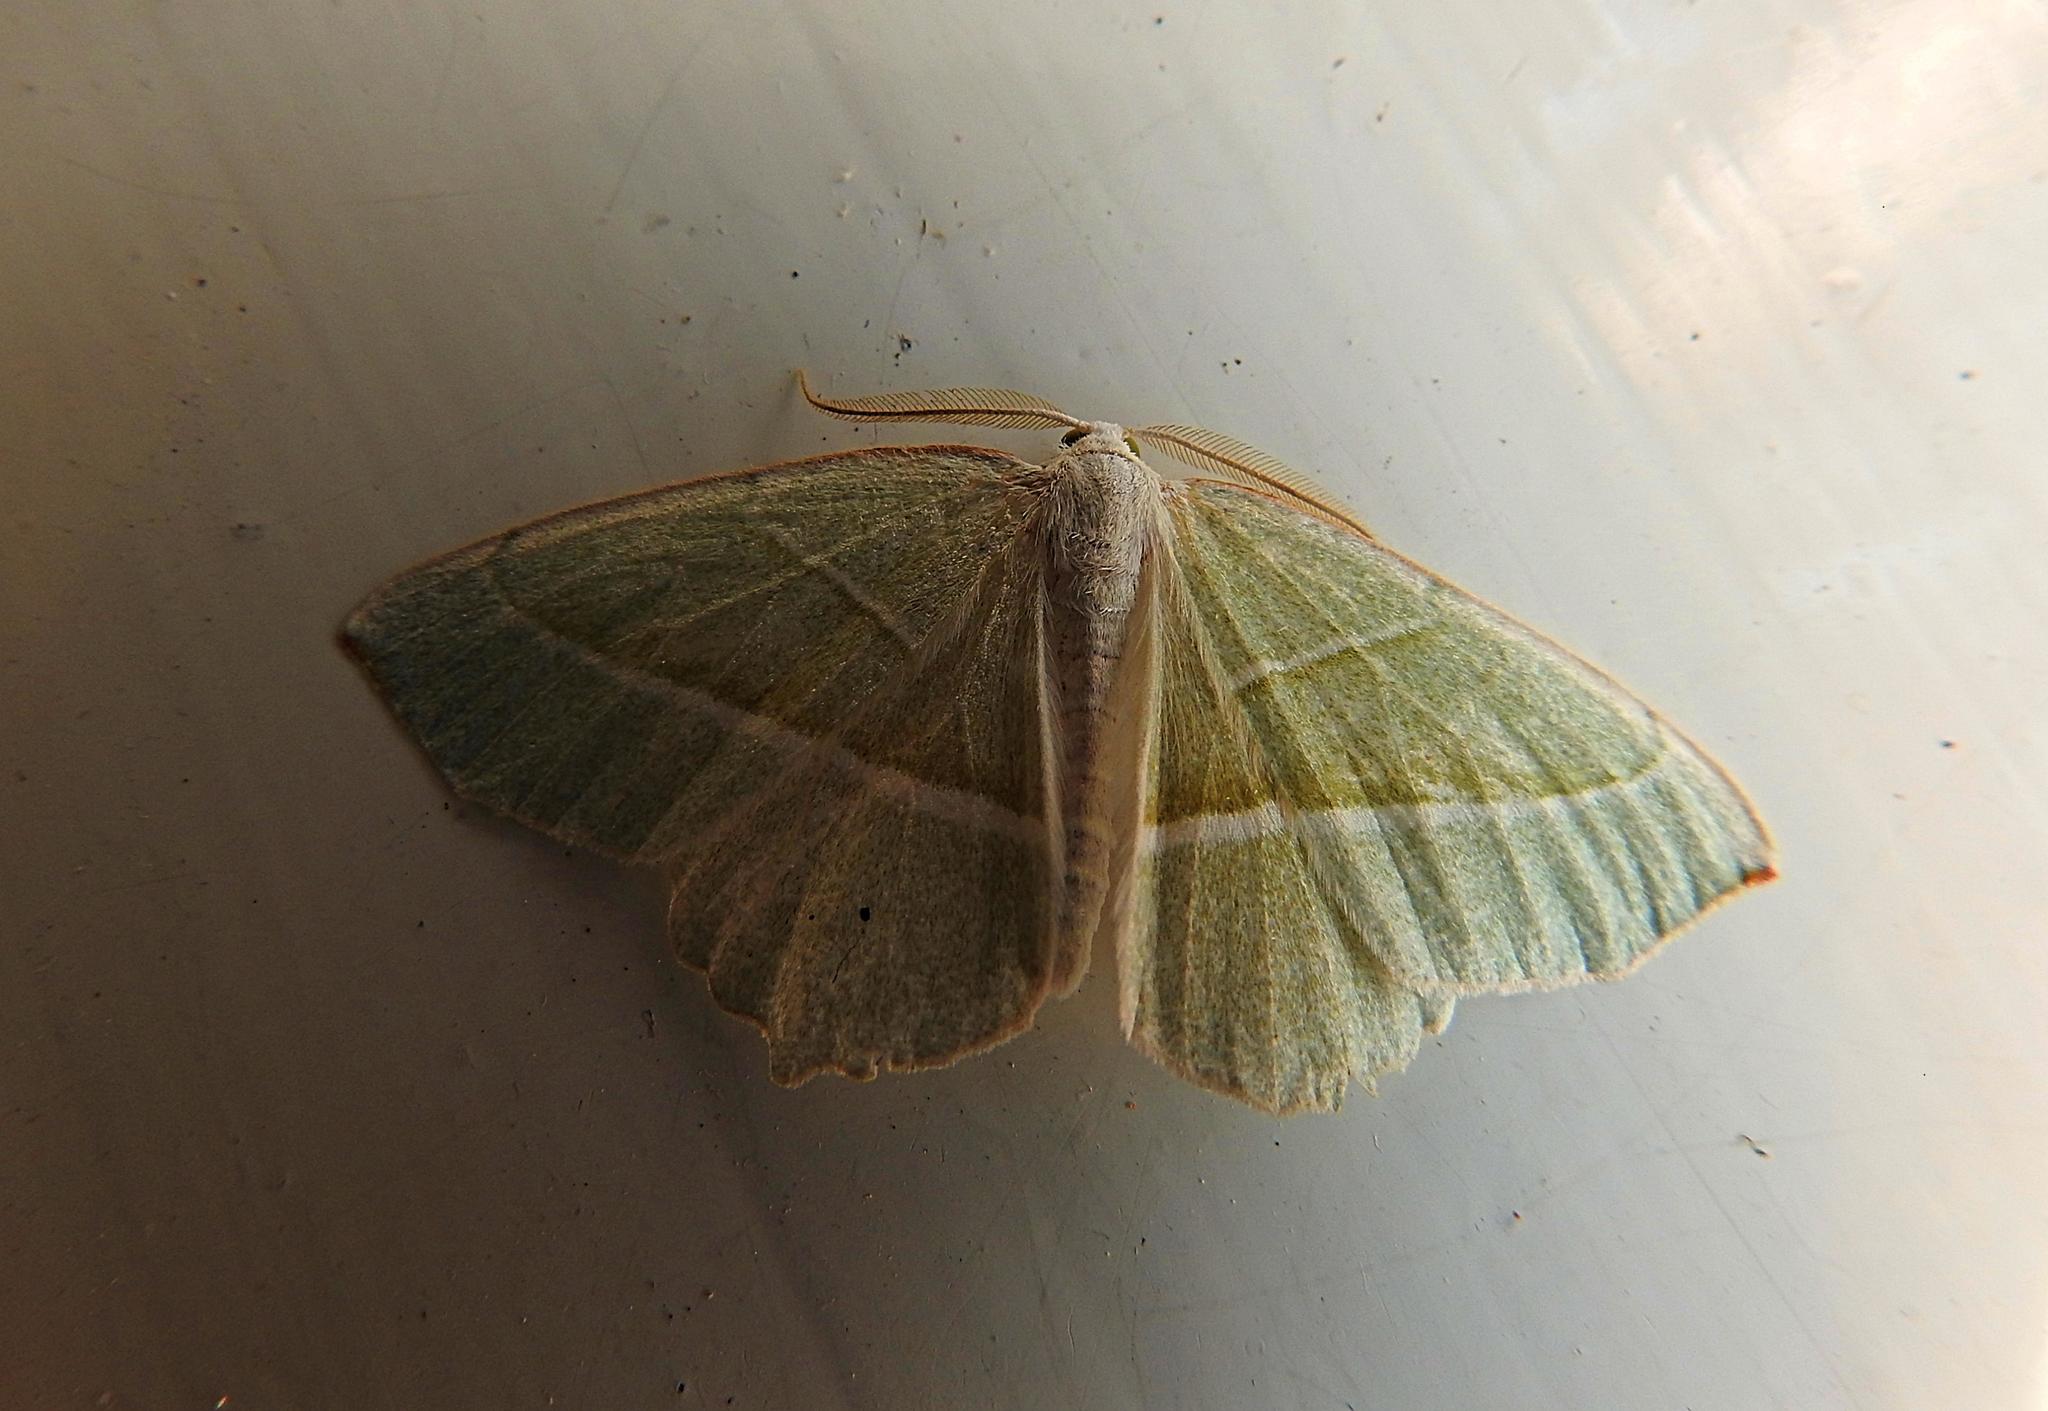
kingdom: Animalia
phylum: Arthropoda
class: Insecta
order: Lepidoptera
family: Geometridae
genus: Campaea
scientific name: Campaea margaritaria
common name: Light emerald
